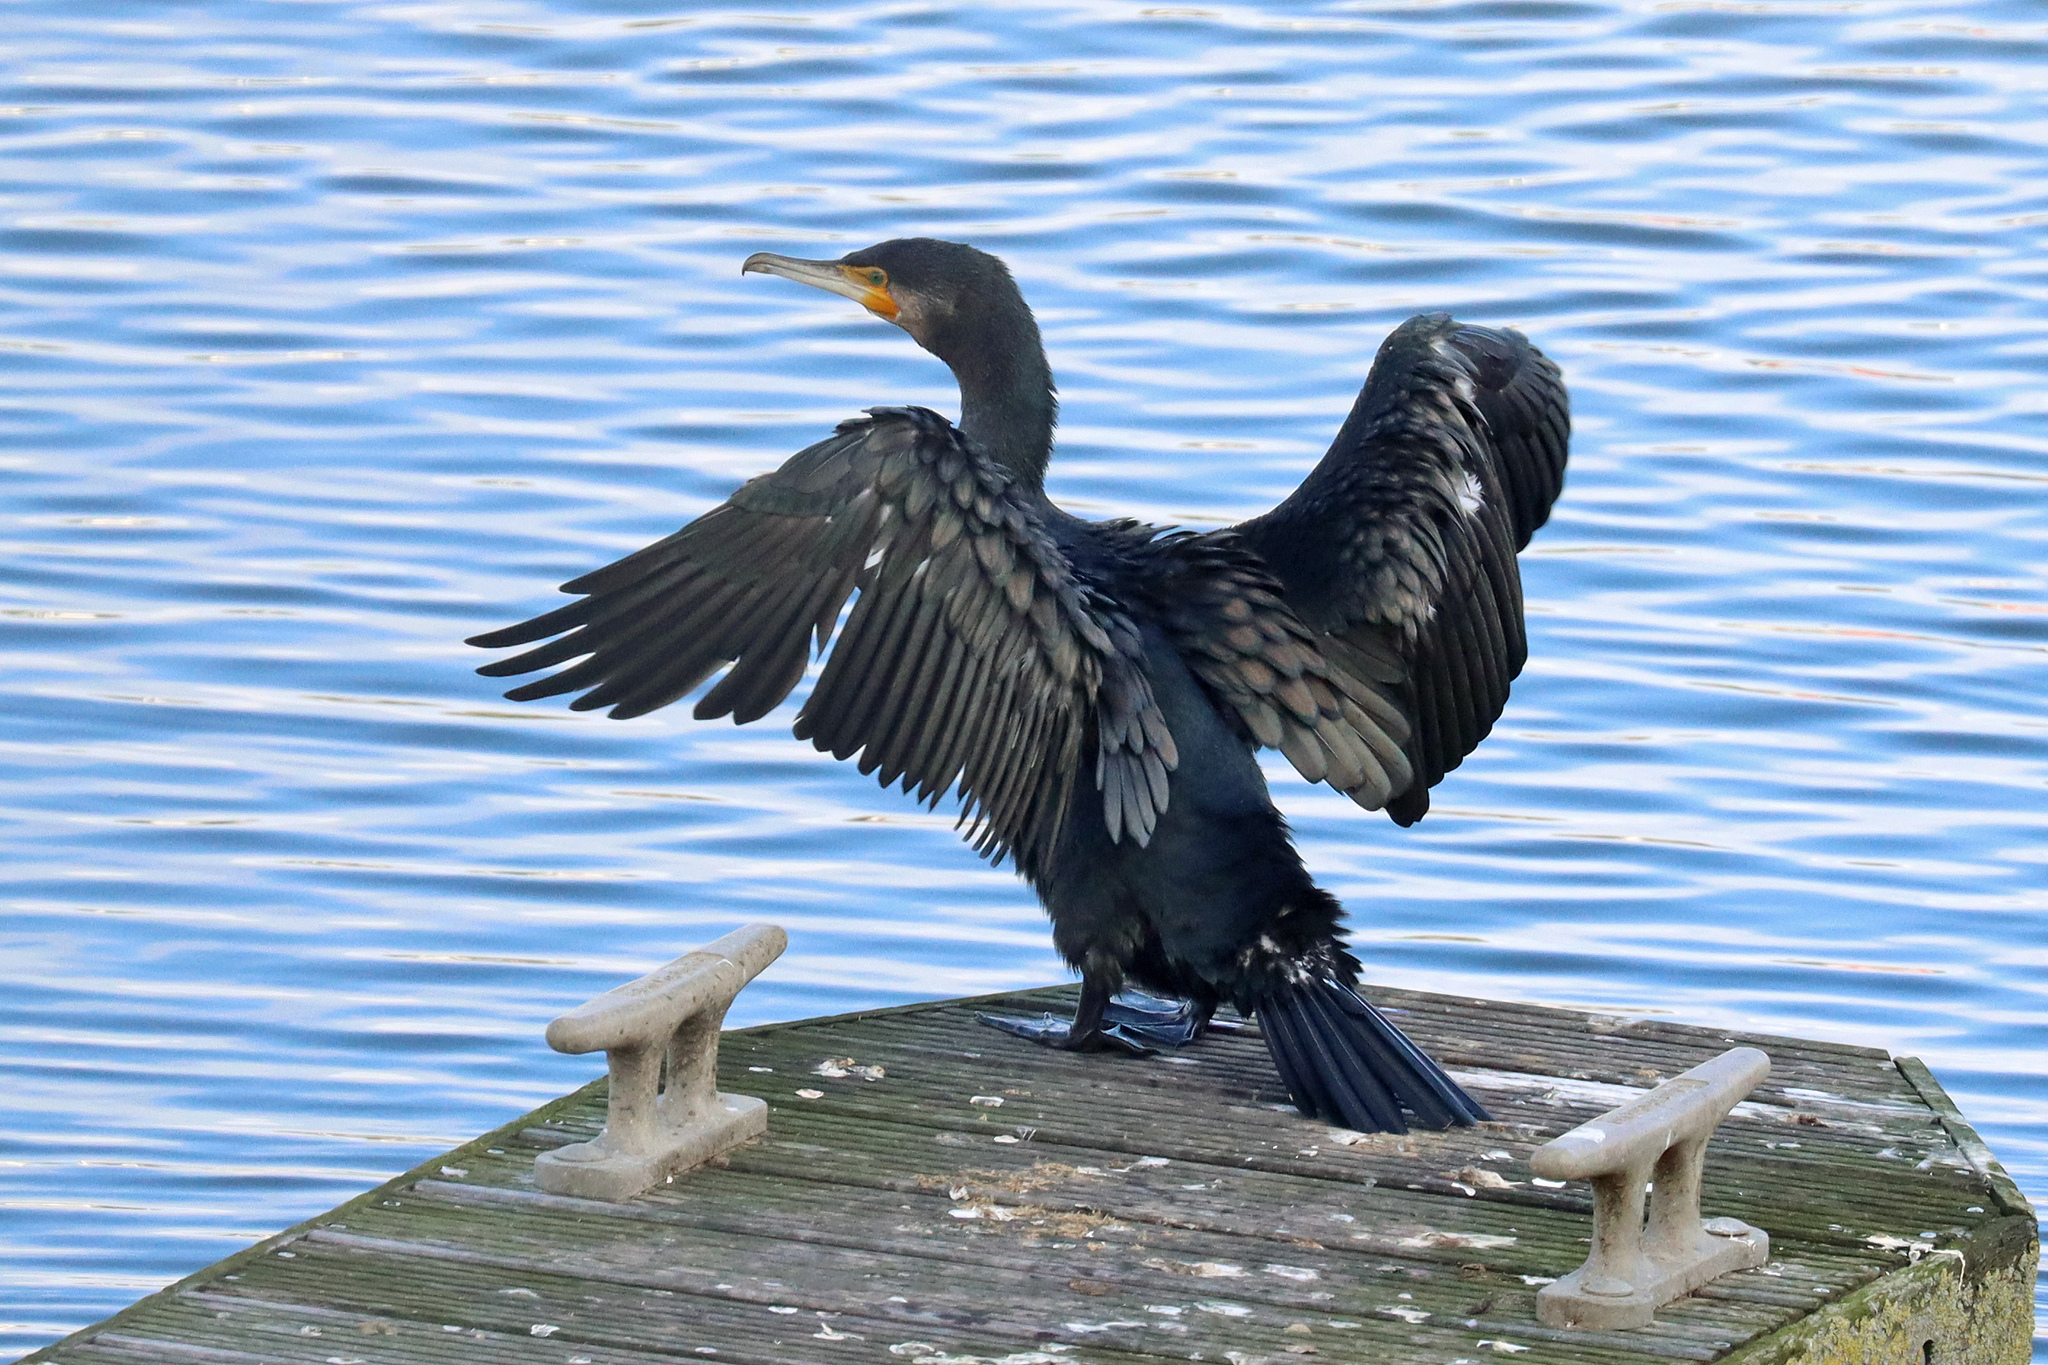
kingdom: Animalia
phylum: Chordata
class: Aves
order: Suliformes
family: Phalacrocoracidae
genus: Phalacrocorax
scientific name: Phalacrocorax carbo
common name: Great cormorant
